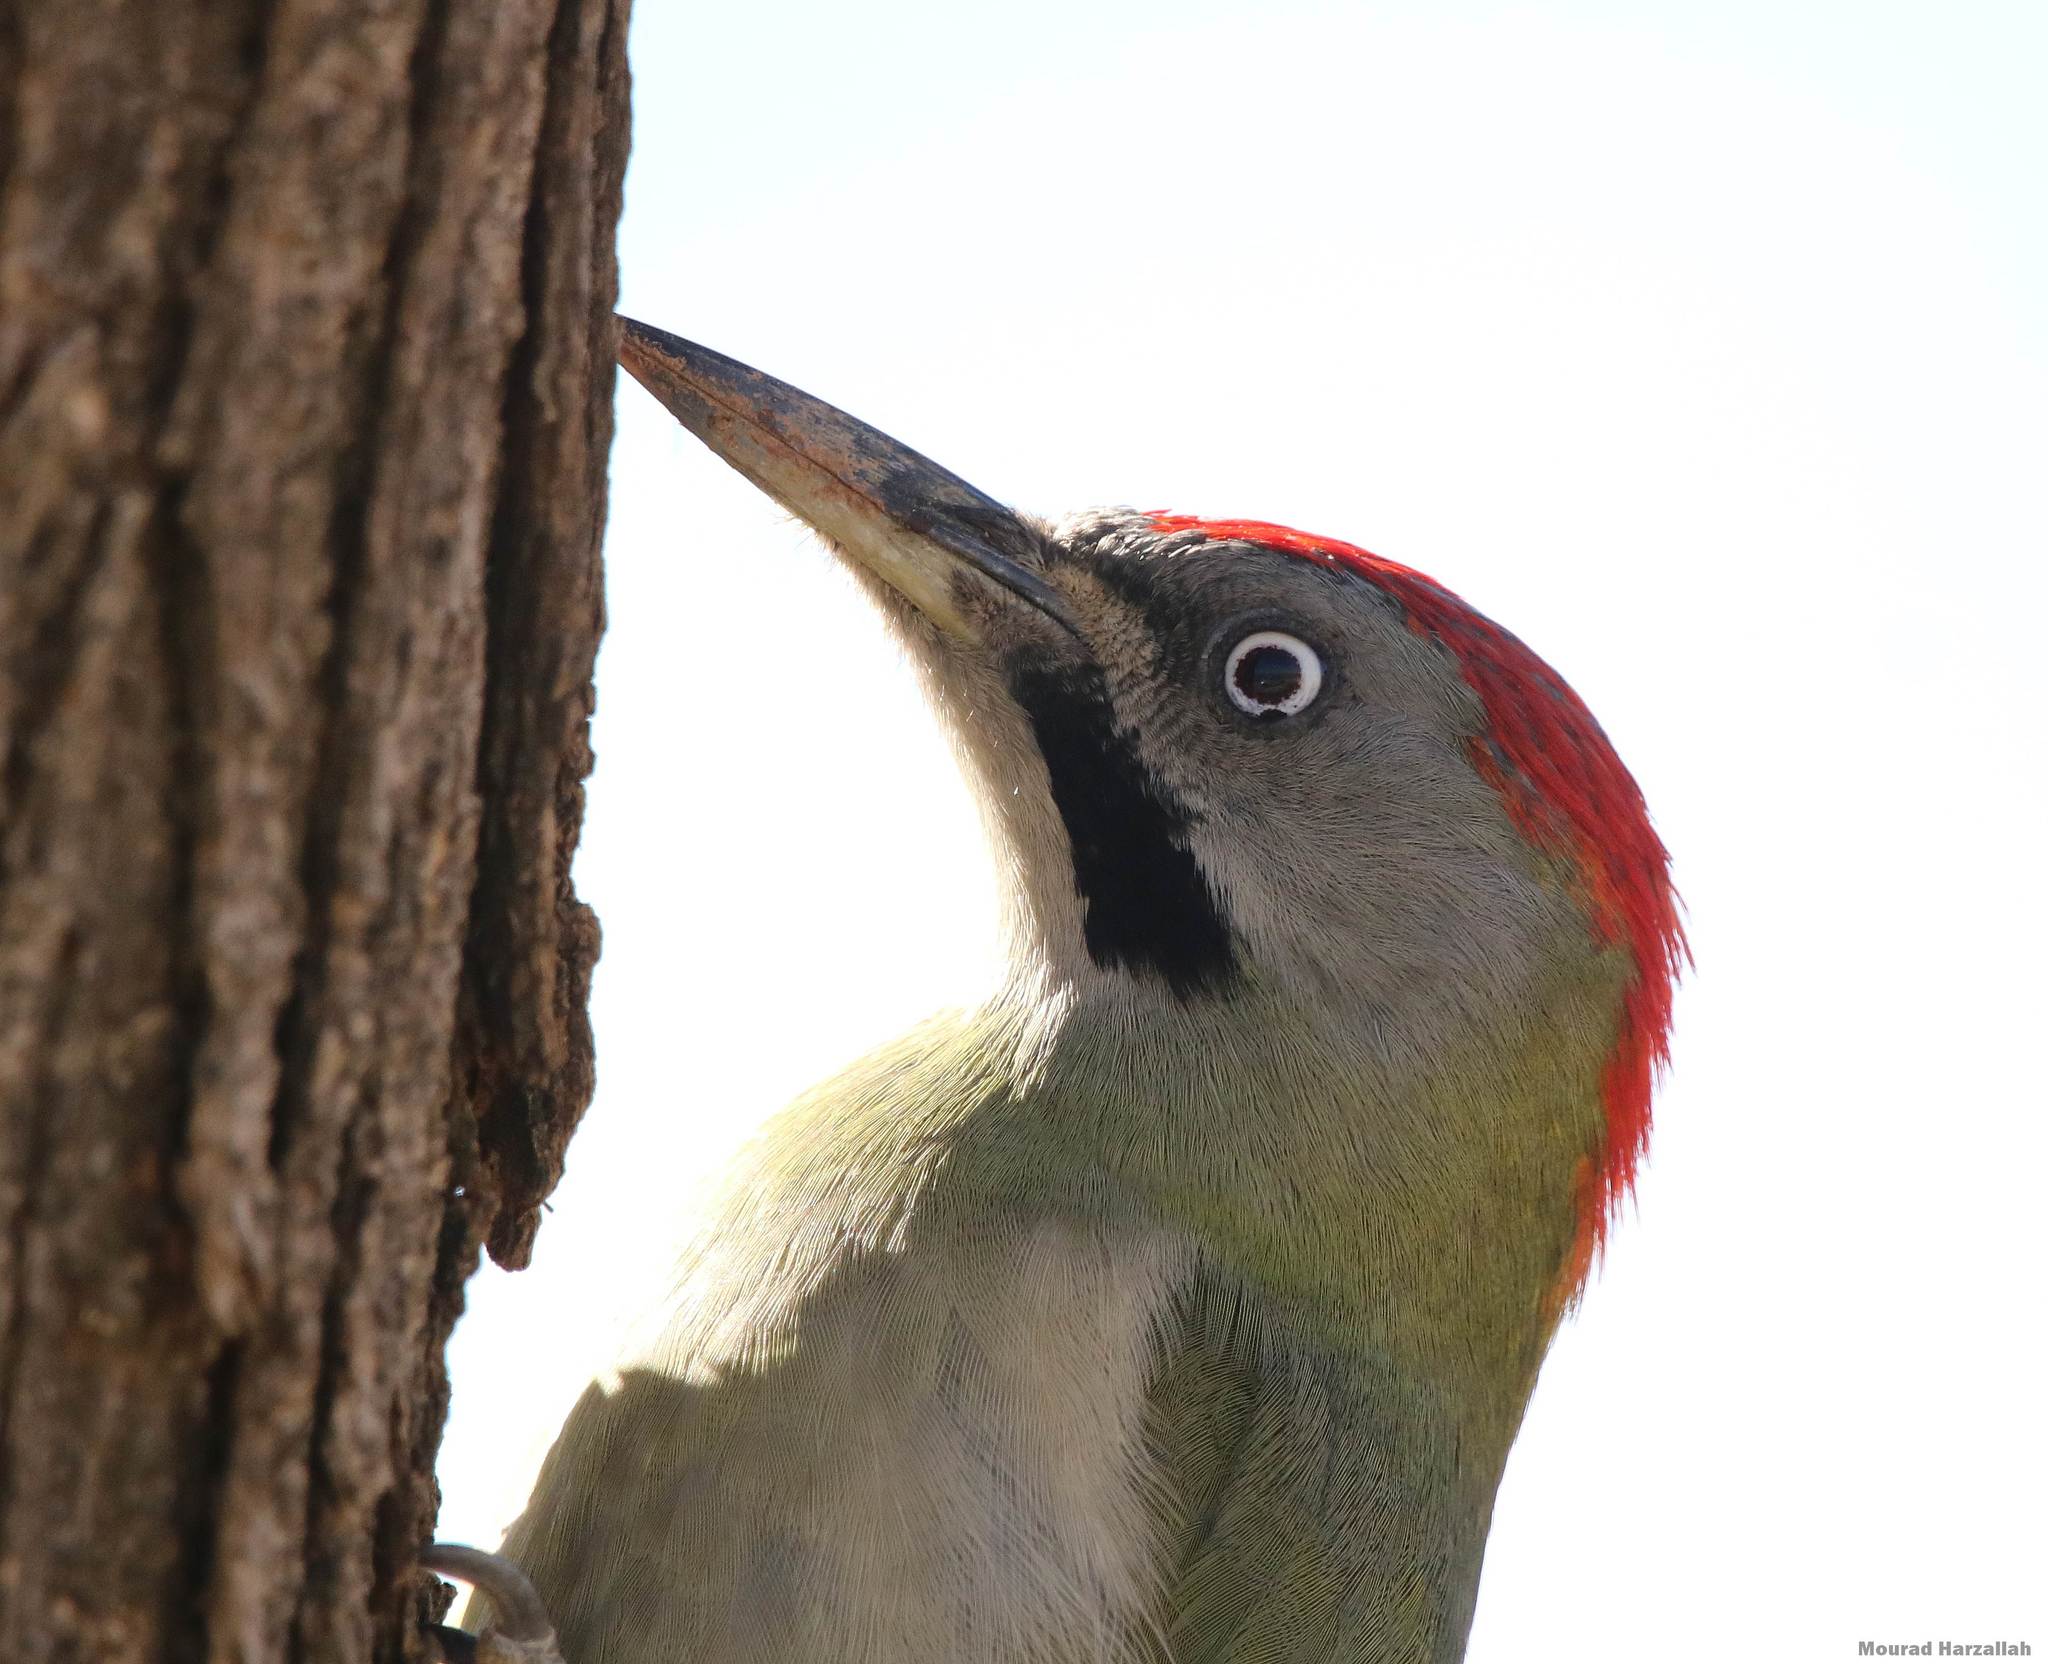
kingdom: Animalia
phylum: Chordata
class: Aves
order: Piciformes
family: Picidae
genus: Picus
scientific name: Picus vaillantii
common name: Levaillant's woodpecker
